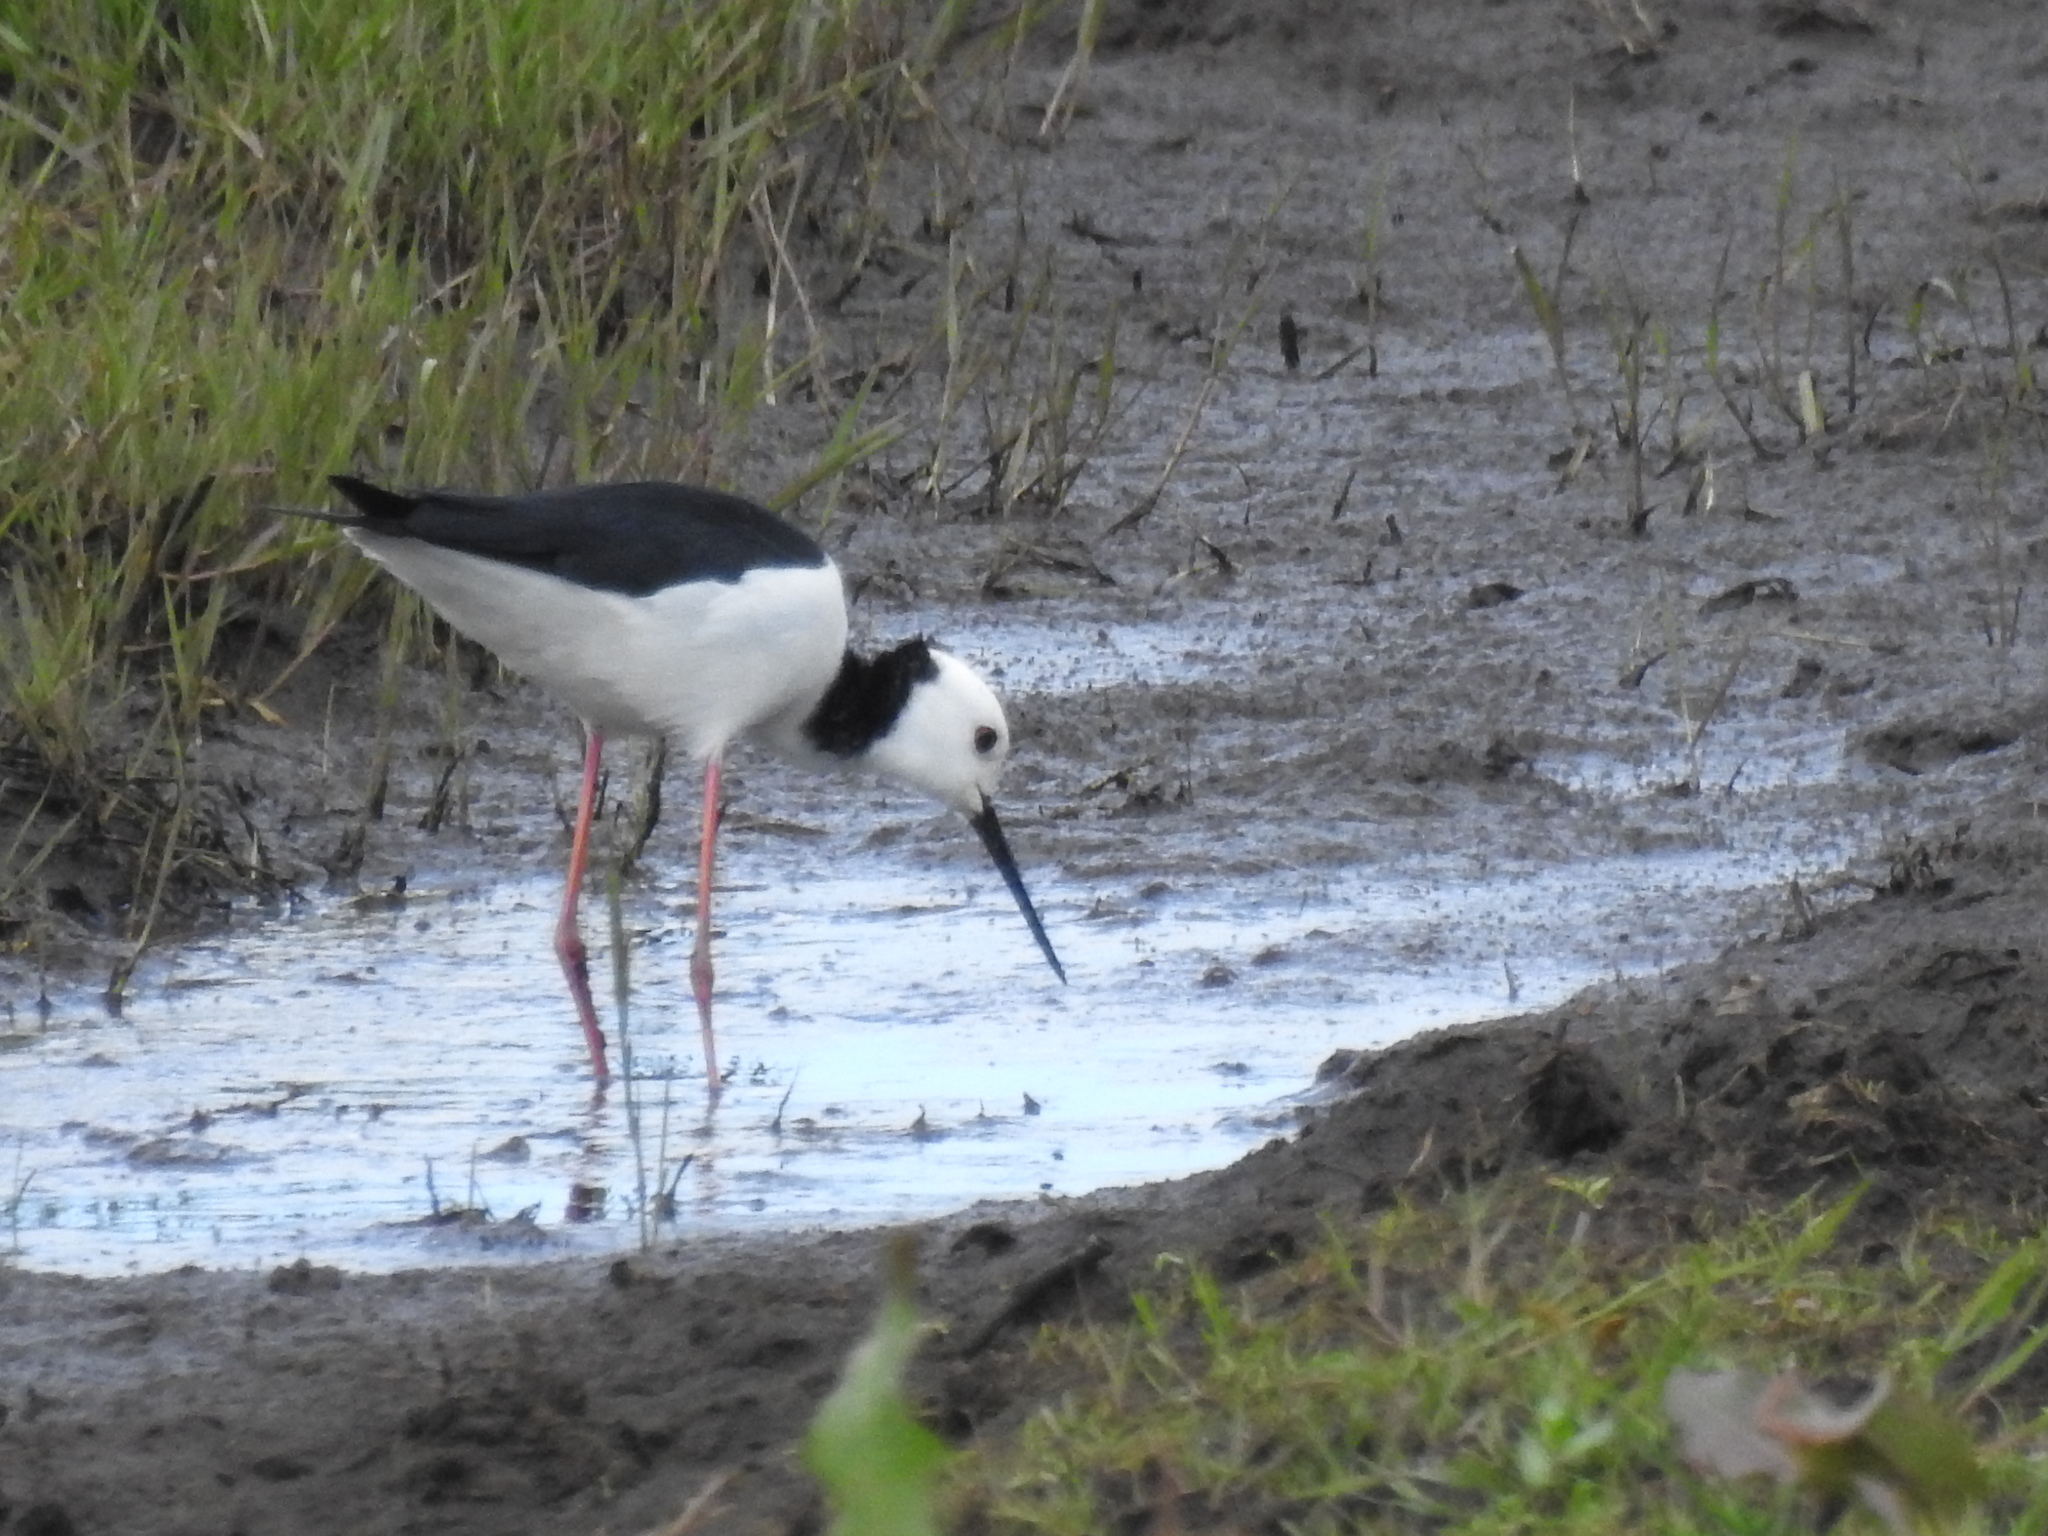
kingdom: Animalia
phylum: Chordata
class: Aves
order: Charadriiformes
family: Recurvirostridae
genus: Himantopus
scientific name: Himantopus leucocephalus
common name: White-headed stilt
